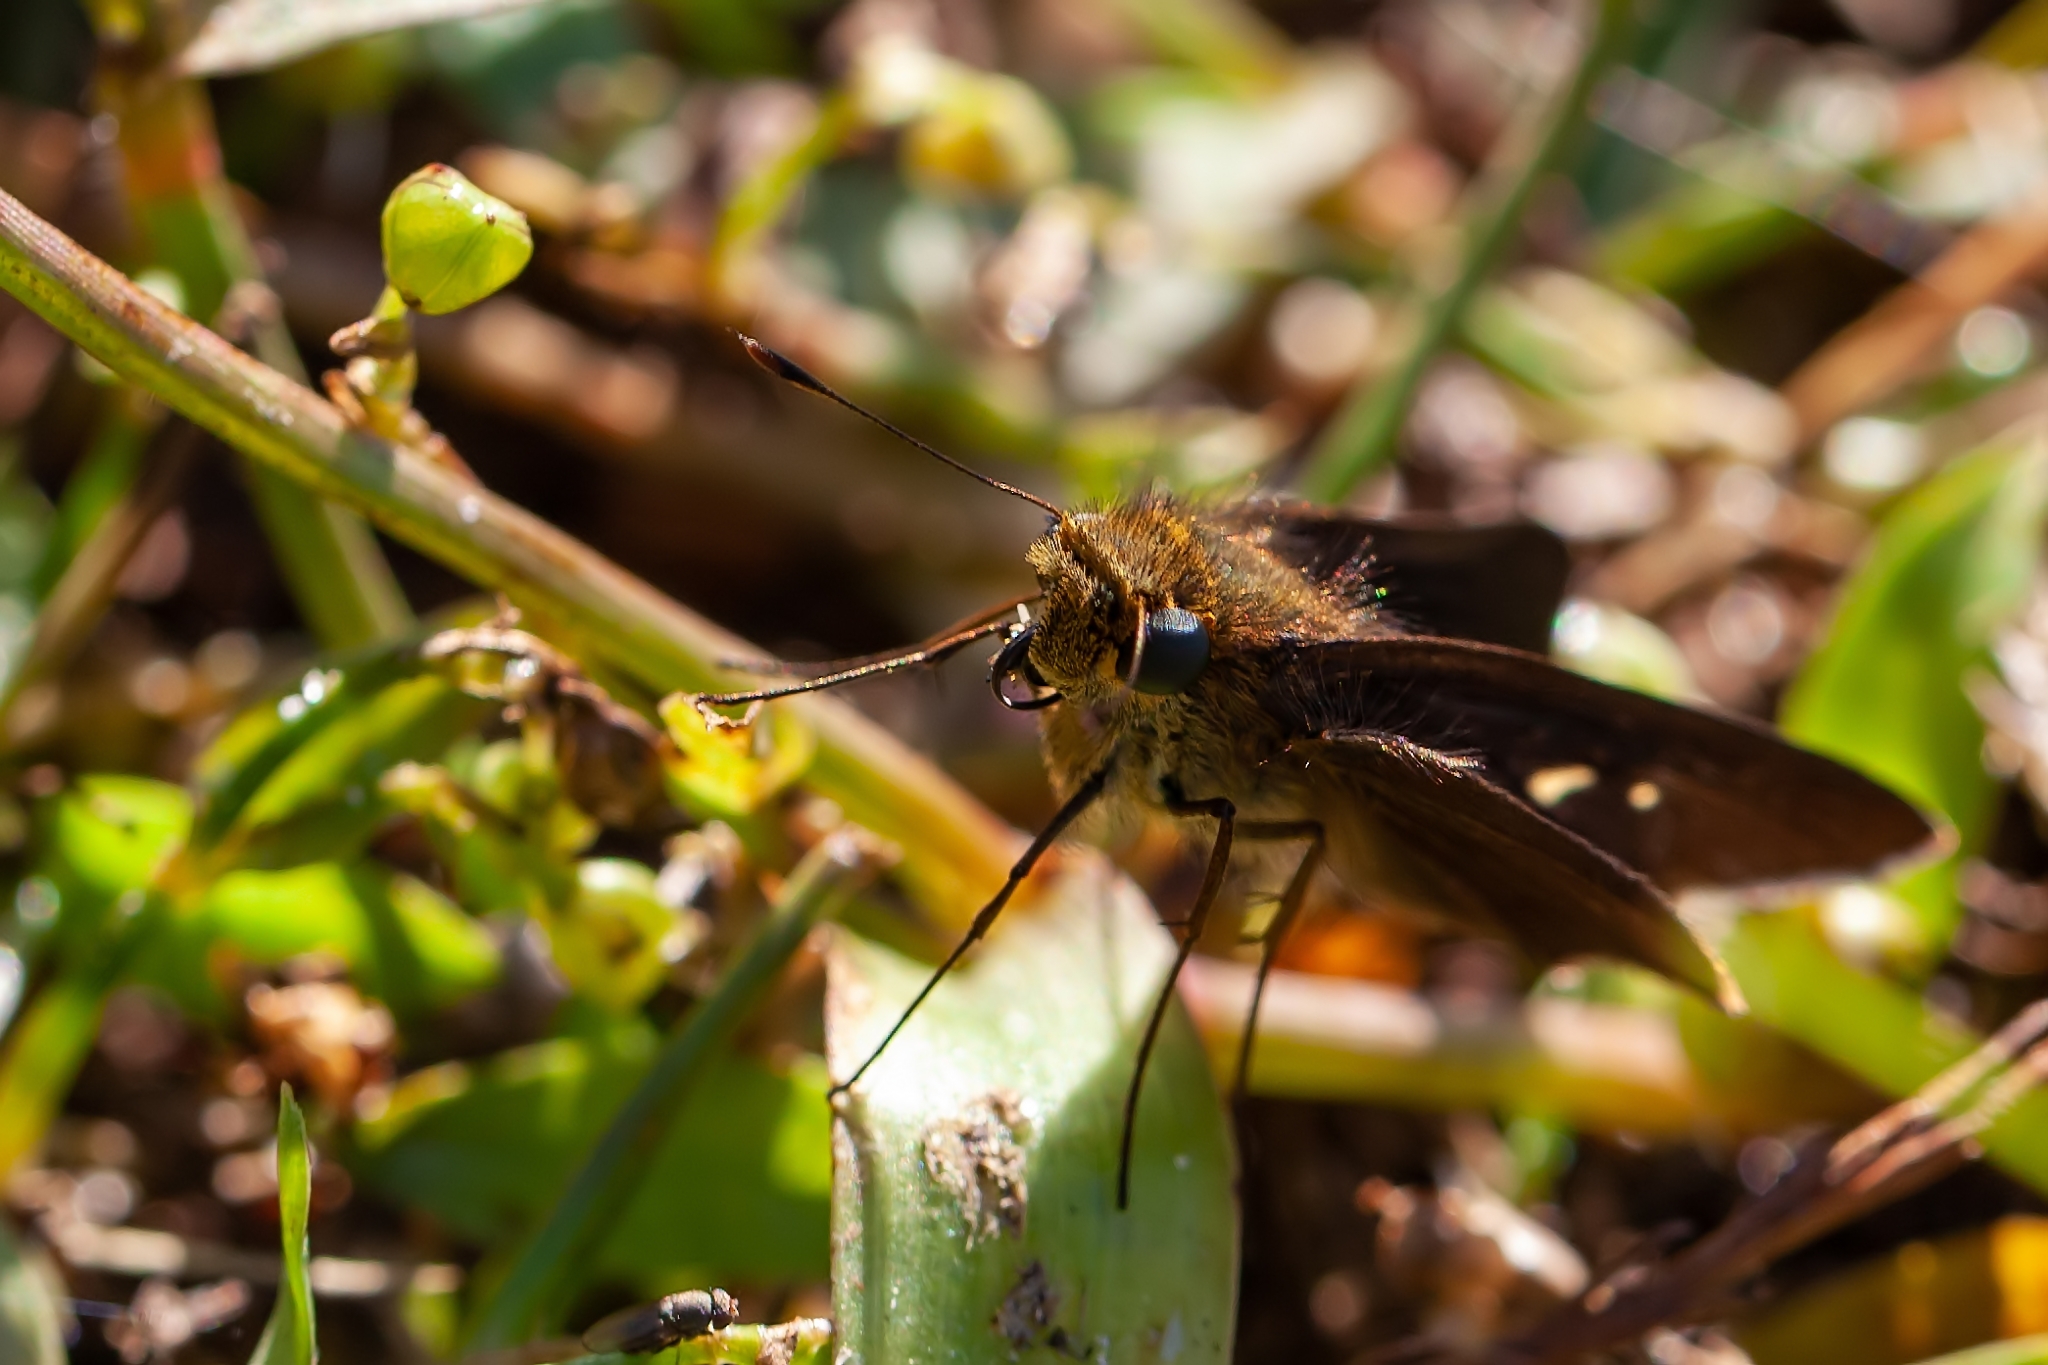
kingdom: Animalia
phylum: Arthropoda
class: Insecta
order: Lepidoptera
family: Hesperiidae
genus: Panoquina
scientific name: Panoquina ocola
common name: Ocola skipper
